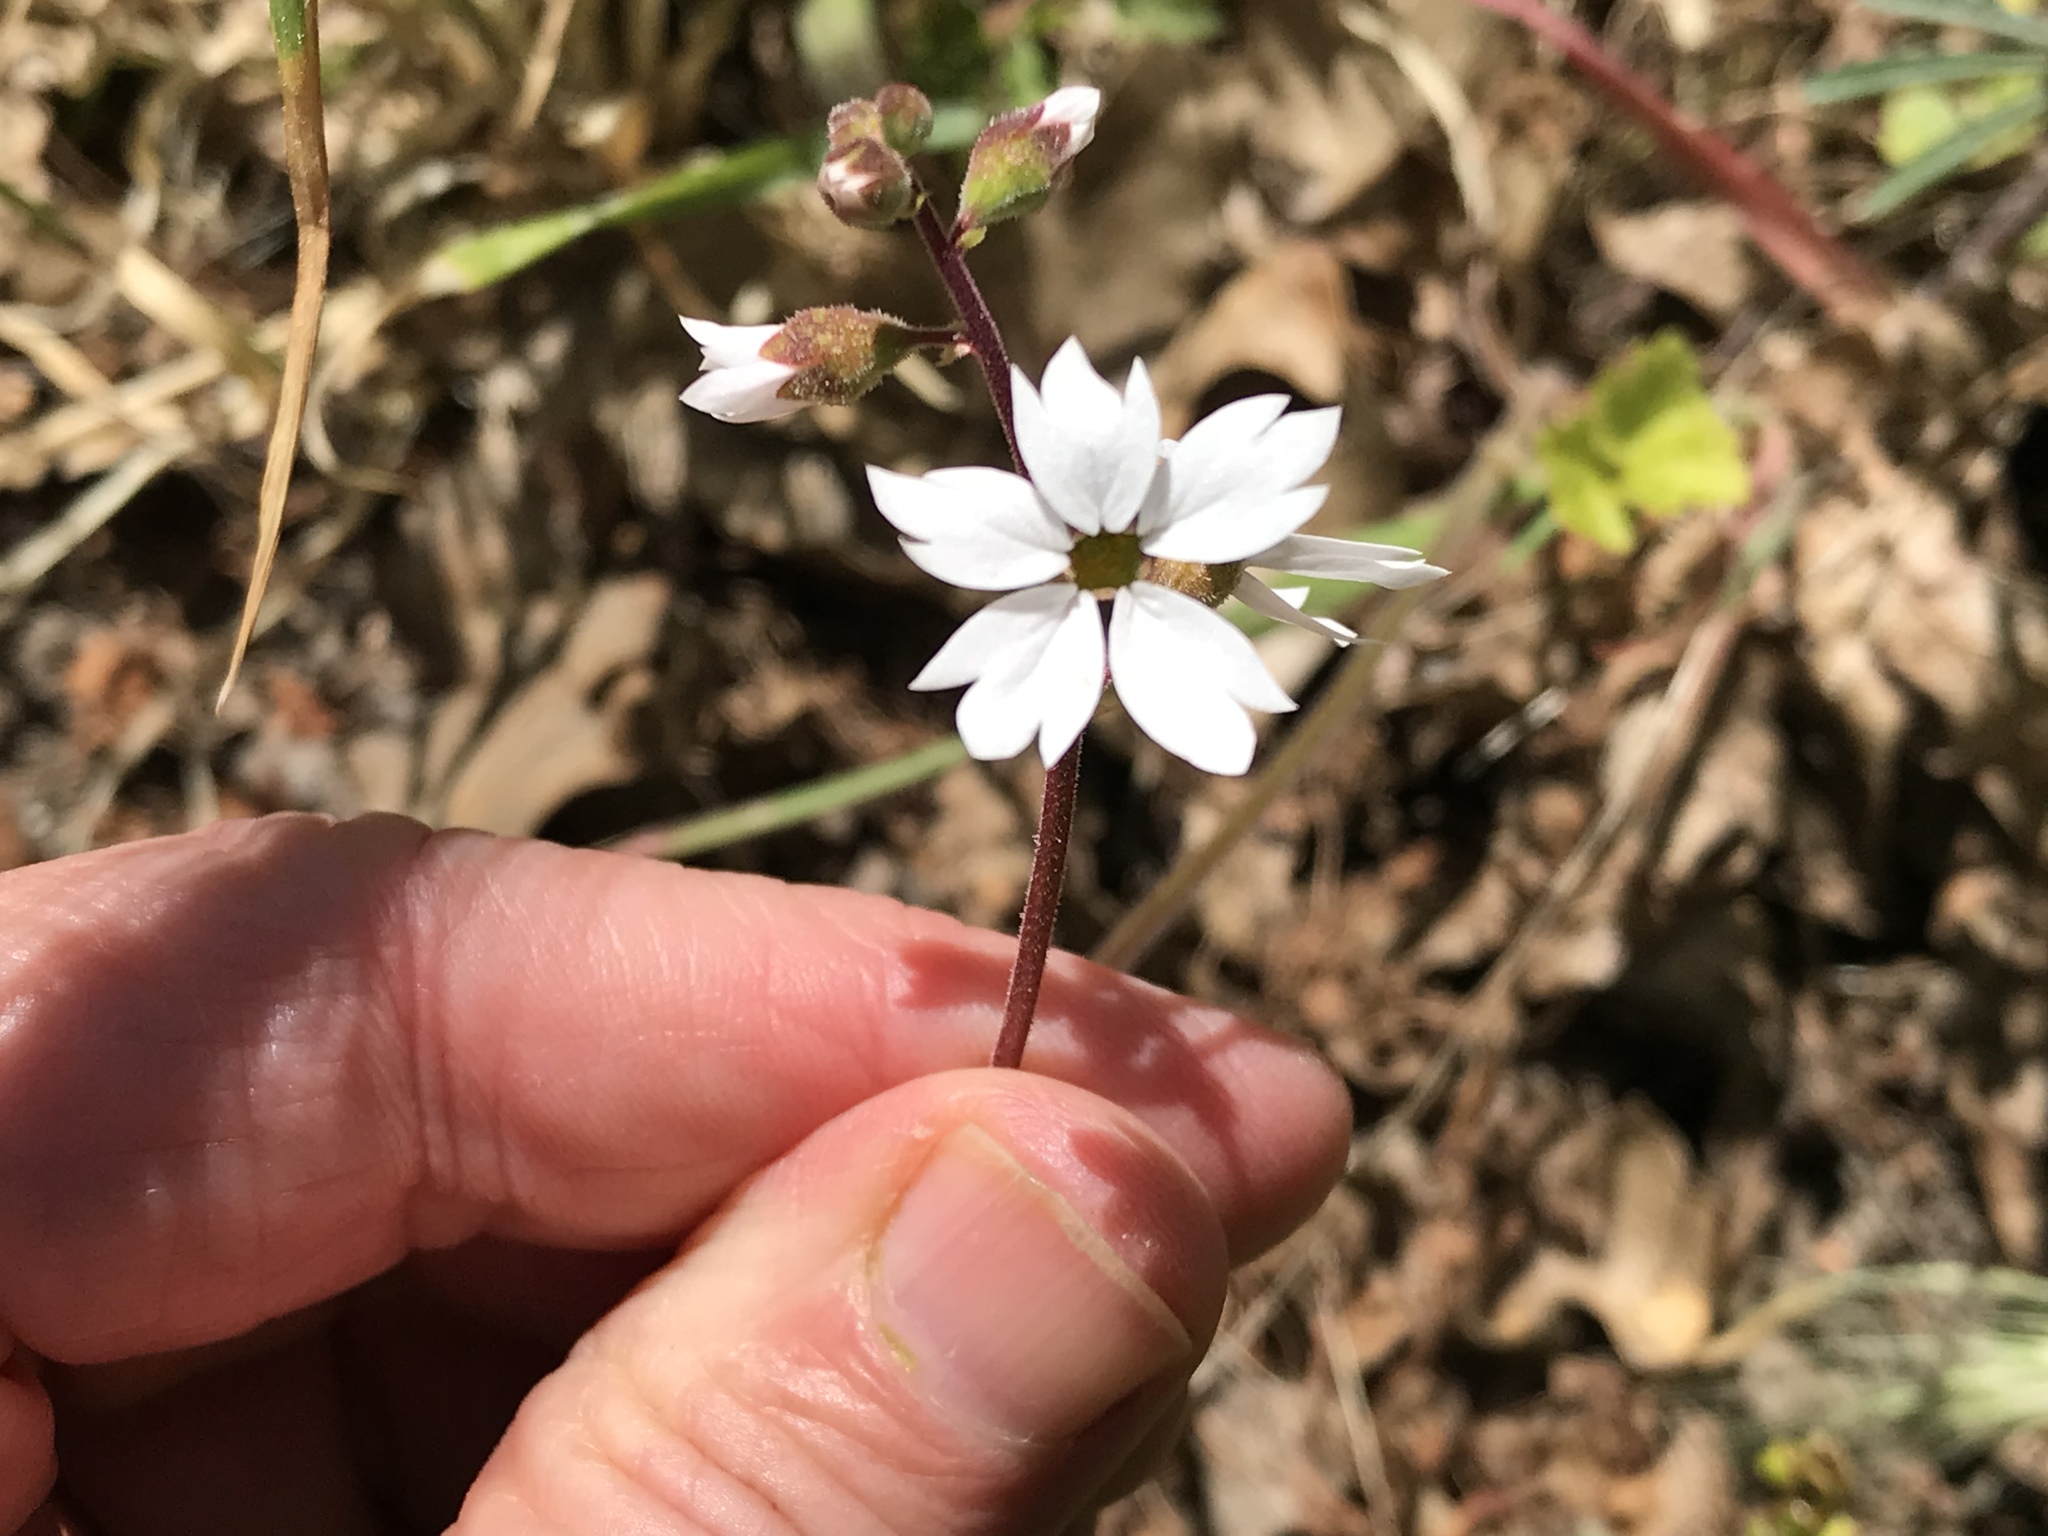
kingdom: Plantae
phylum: Tracheophyta
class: Magnoliopsida
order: Saxifragales
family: Saxifragaceae
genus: Lithophragma
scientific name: Lithophragma affine
